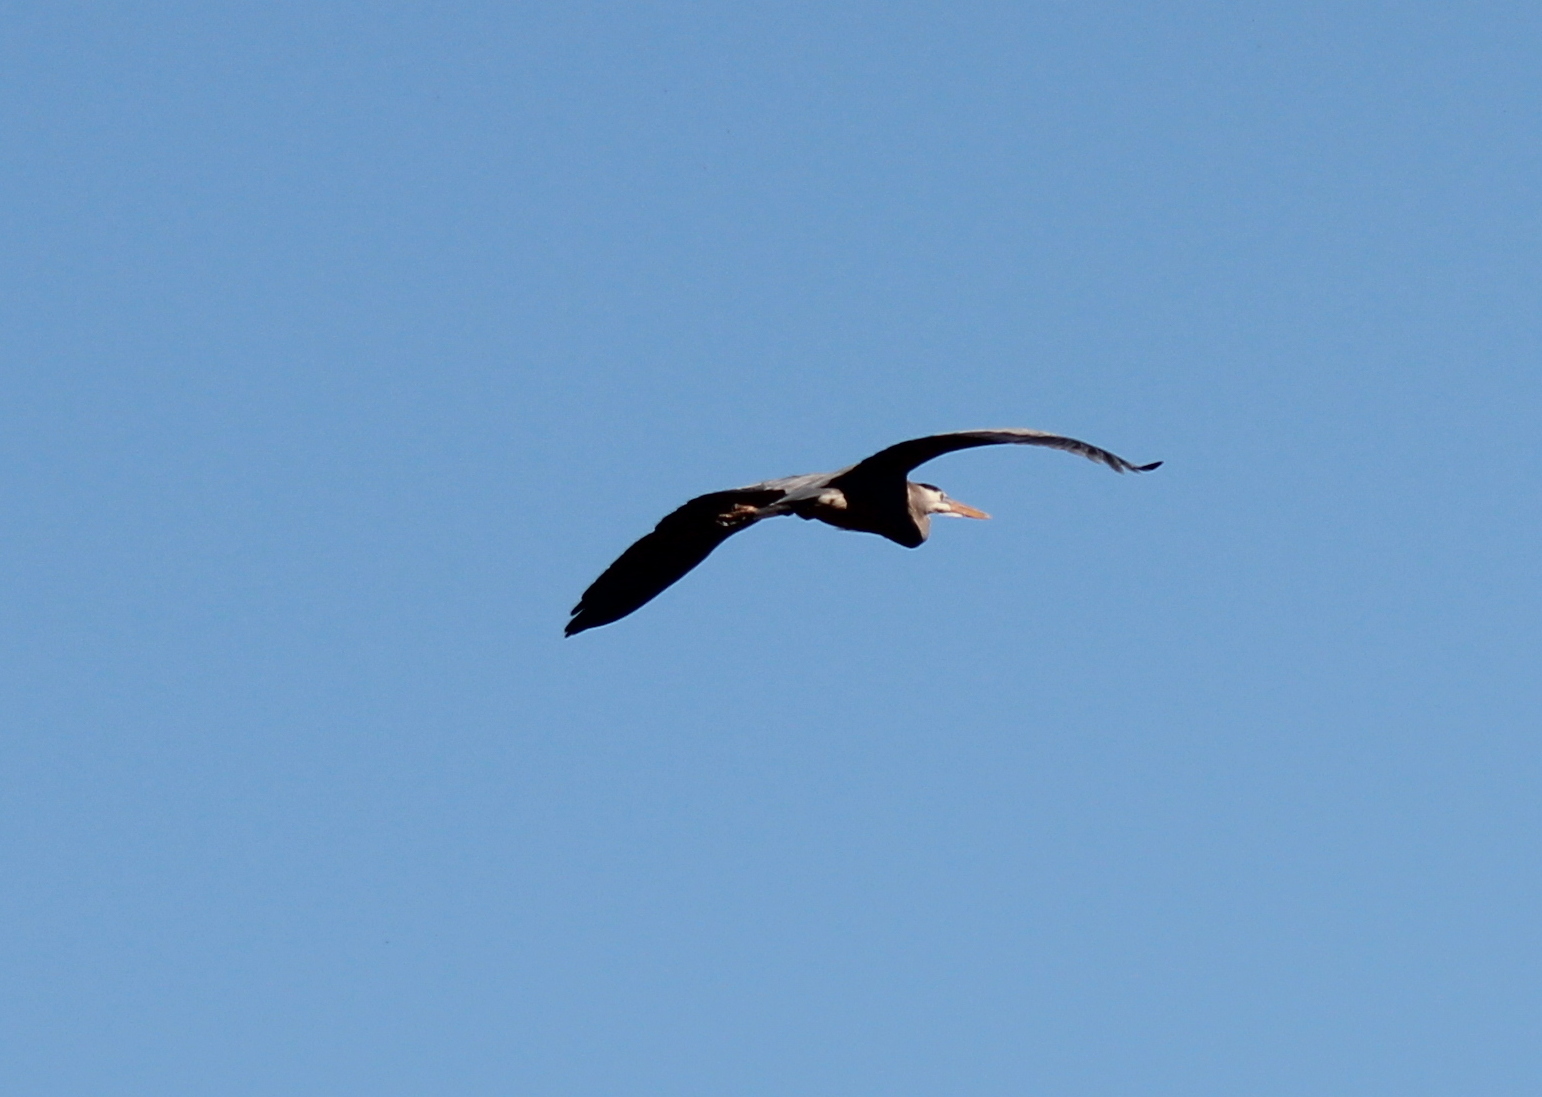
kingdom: Animalia
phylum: Chordata
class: Aves
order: Pelecaniformes
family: Ardeidae
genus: Ardea
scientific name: Ardea herodias
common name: Great blue heron
